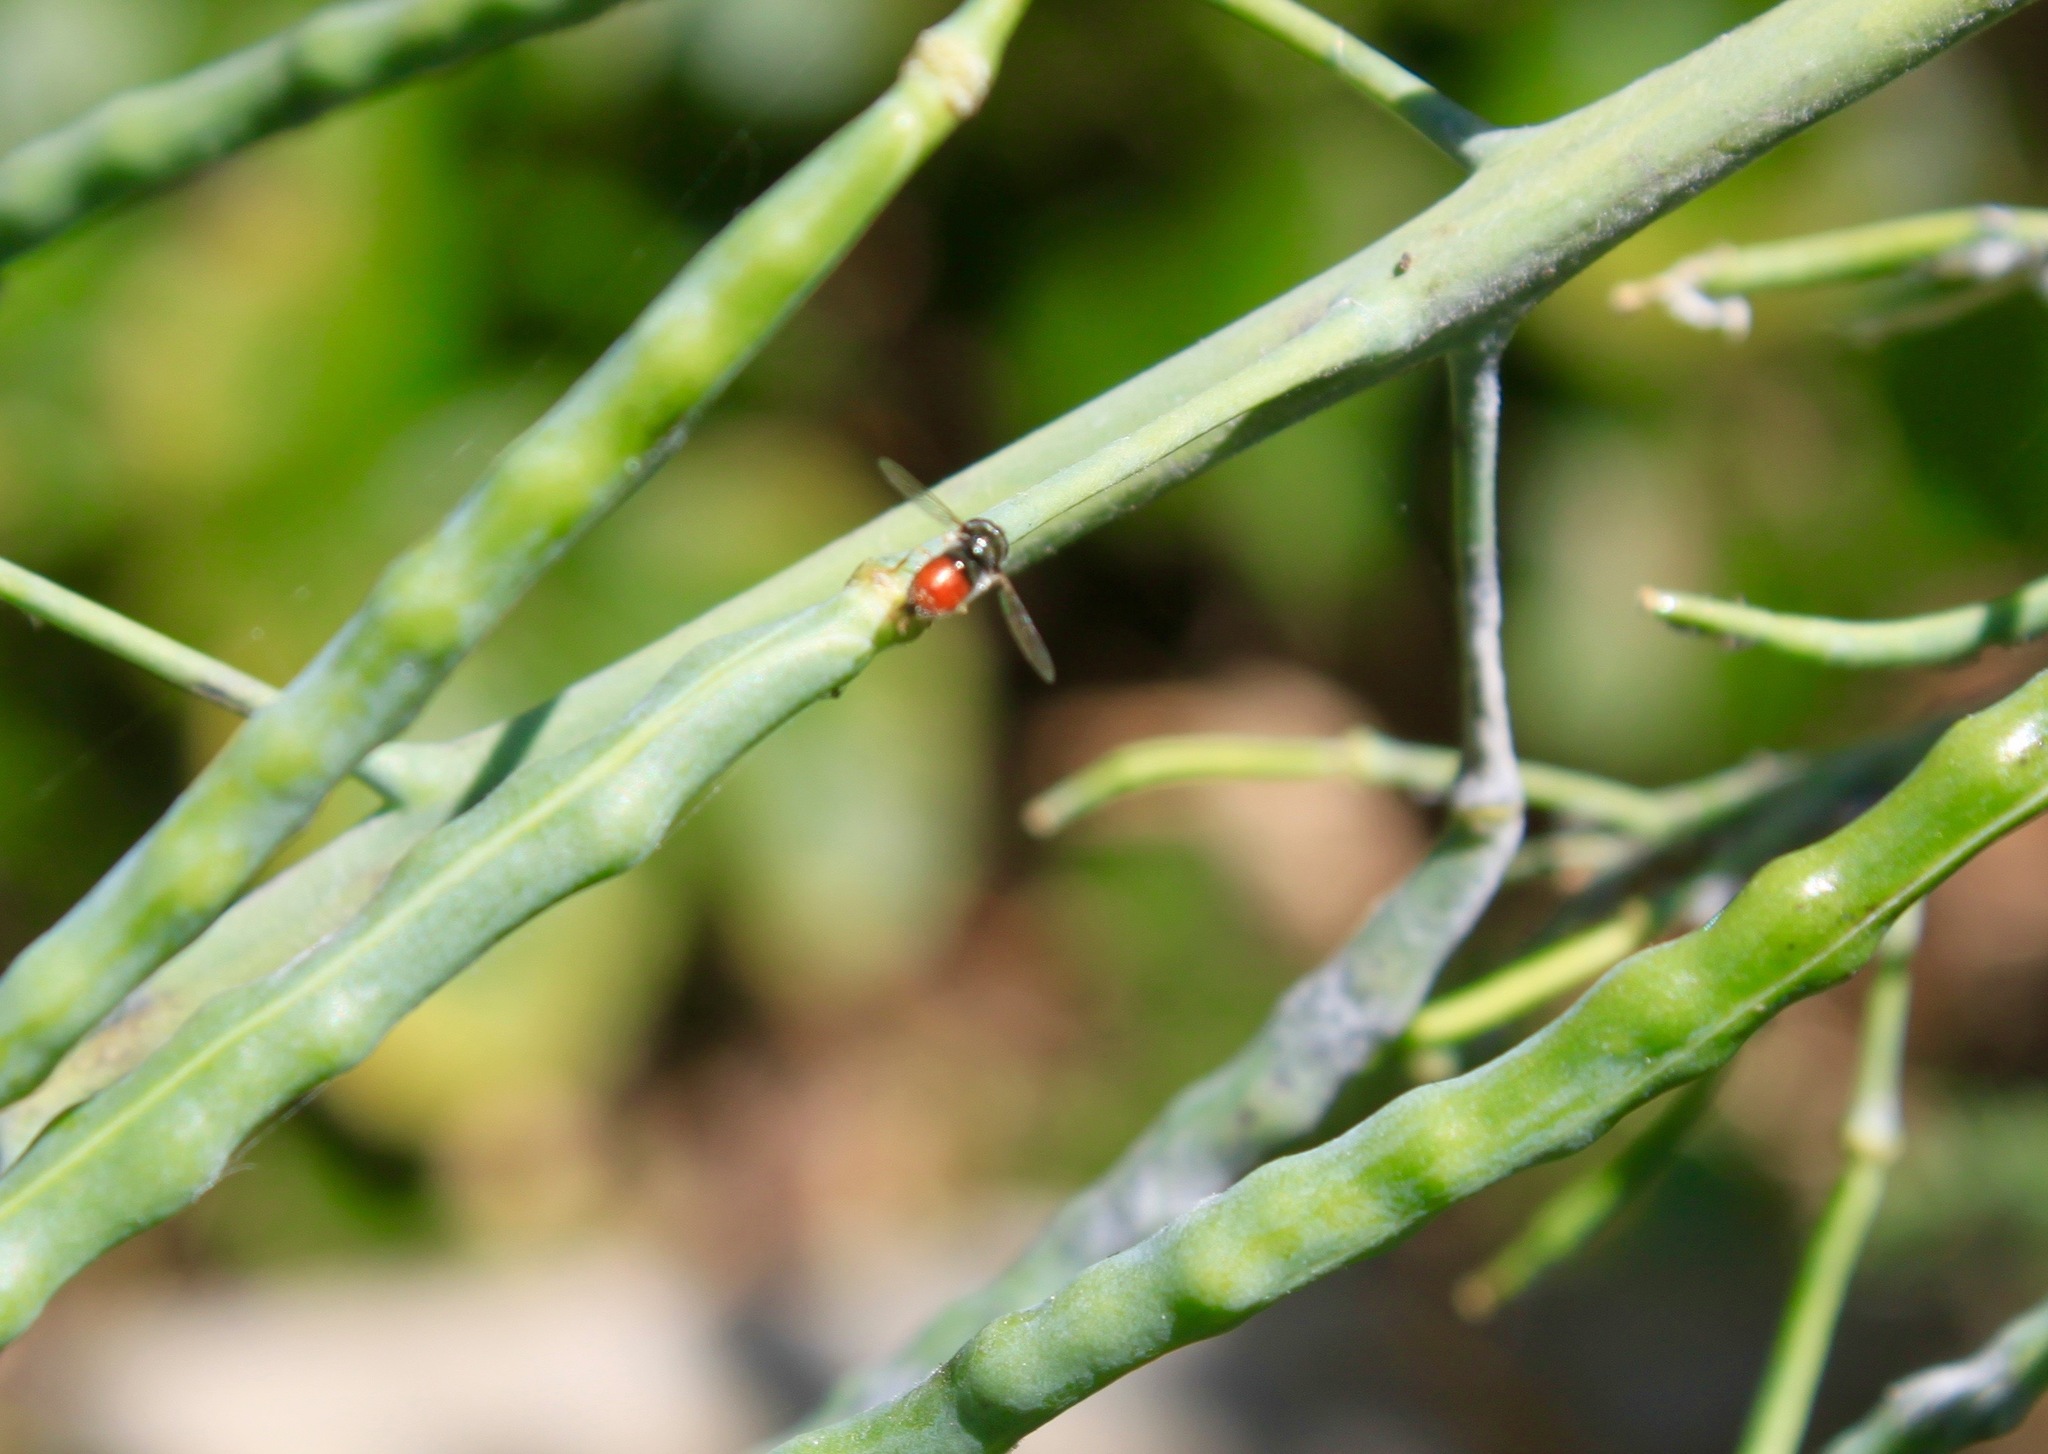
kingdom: Animalia
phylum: Arthropoda
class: Insecta
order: Diptera
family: Syrphidae
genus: Paragus
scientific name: Paragus haemorrhous
